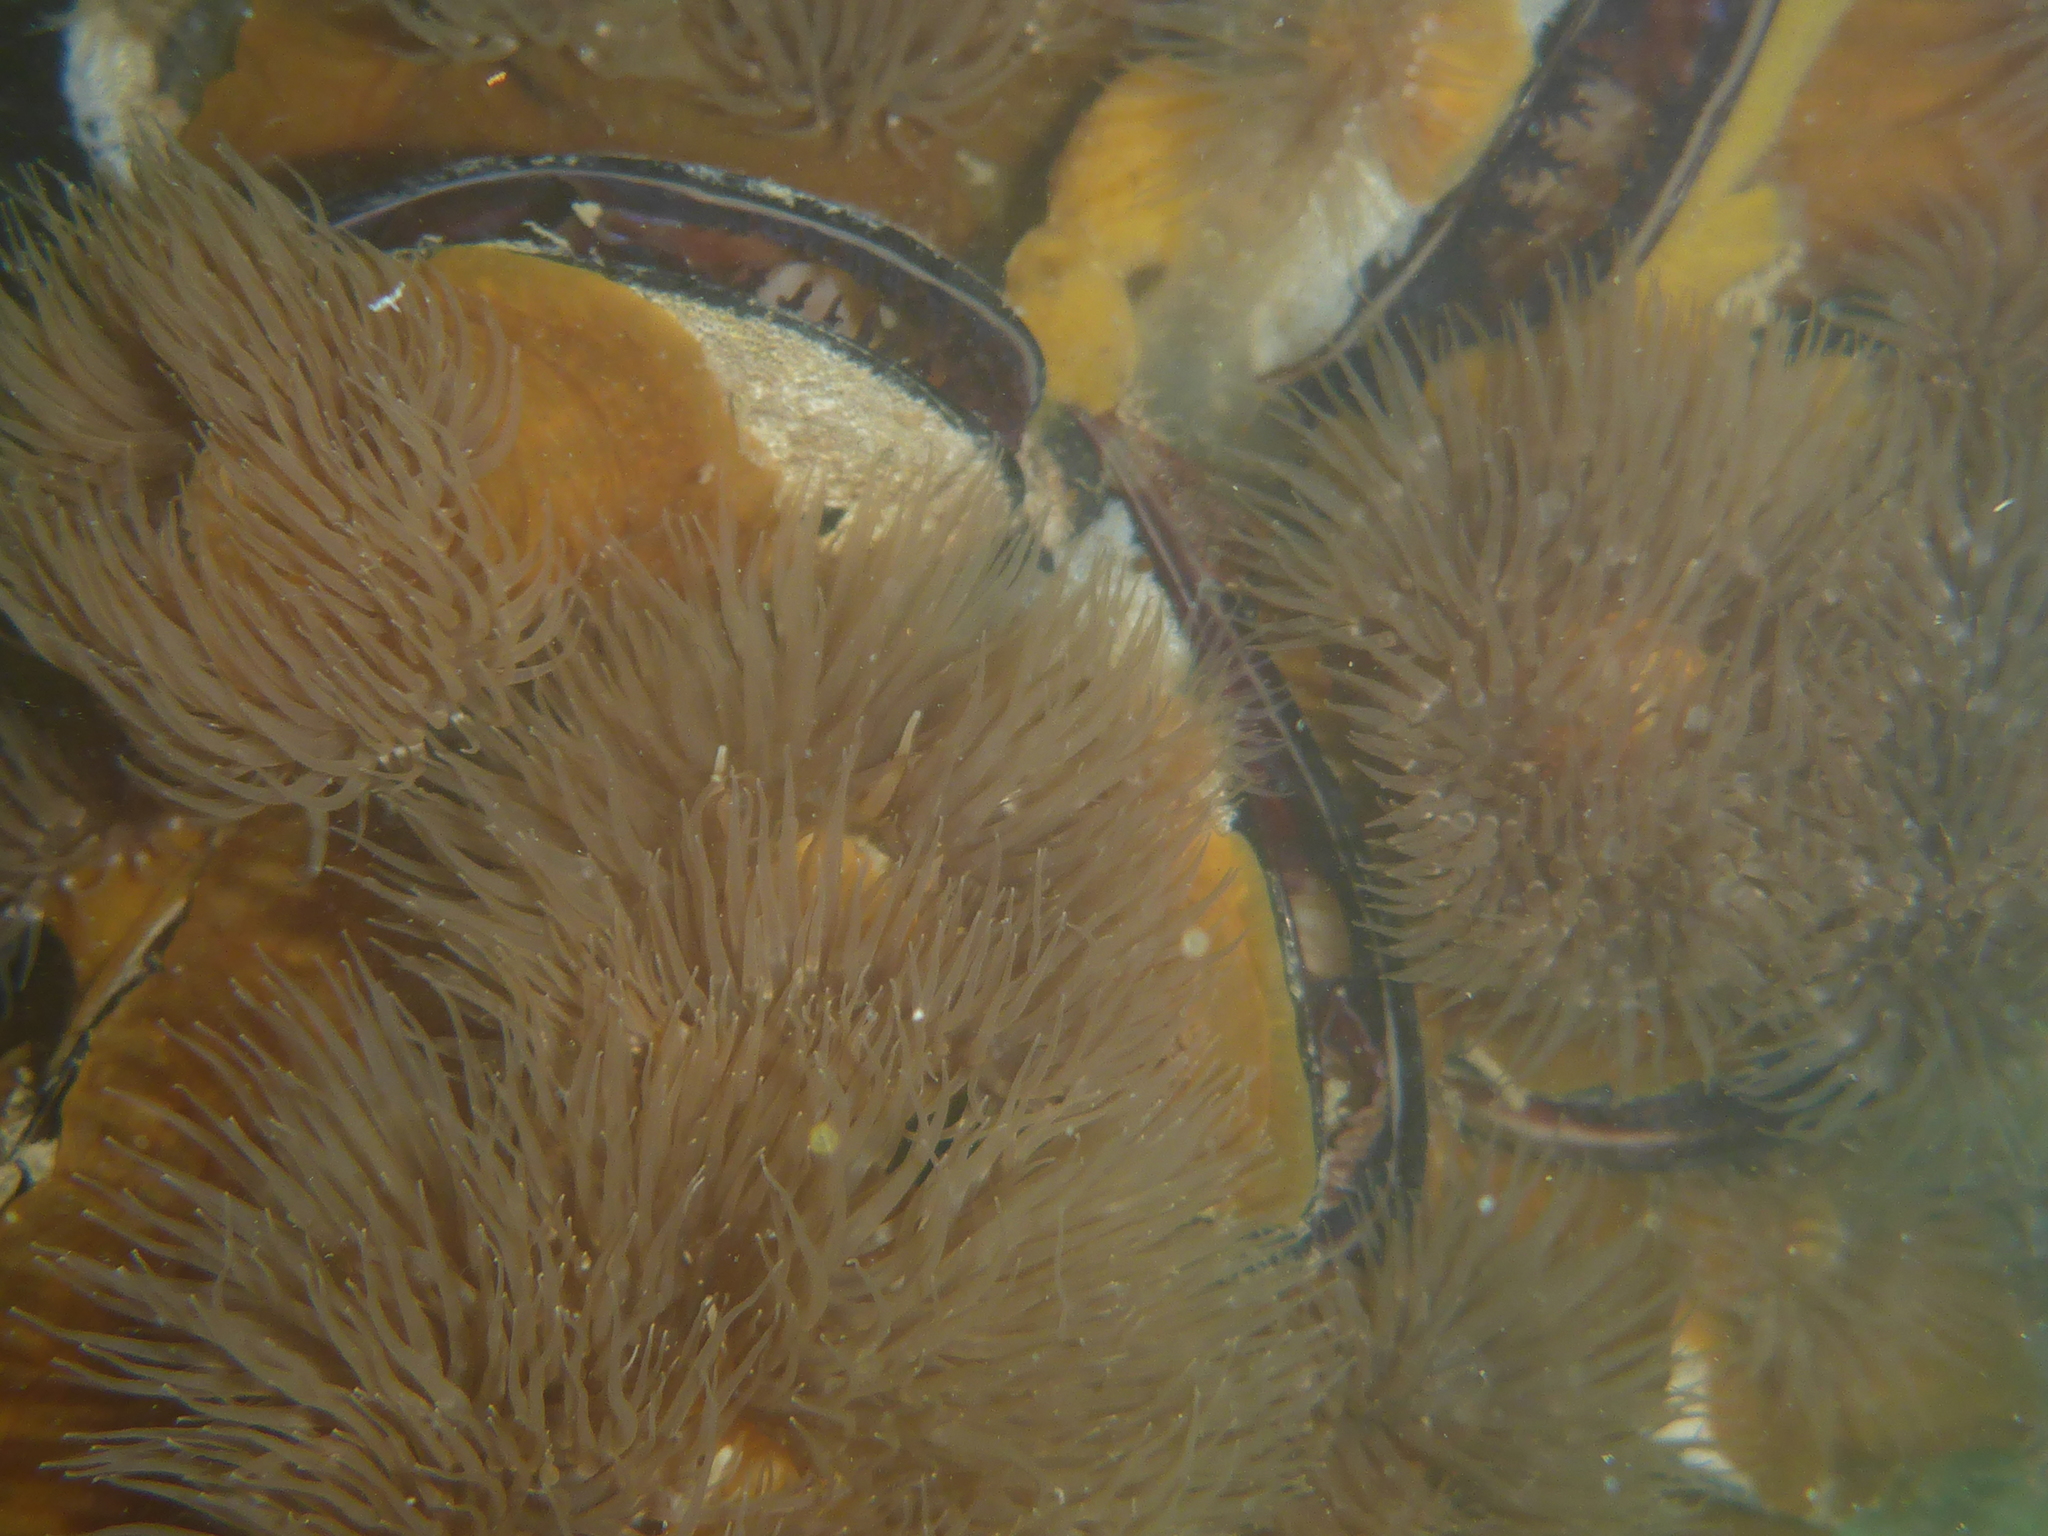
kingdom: Animalia
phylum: Cnidaria
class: Anthozoa
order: Actiniaria
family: Metridiidae
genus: Metridium
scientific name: Metridium senile
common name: Clonal plumose anemone
